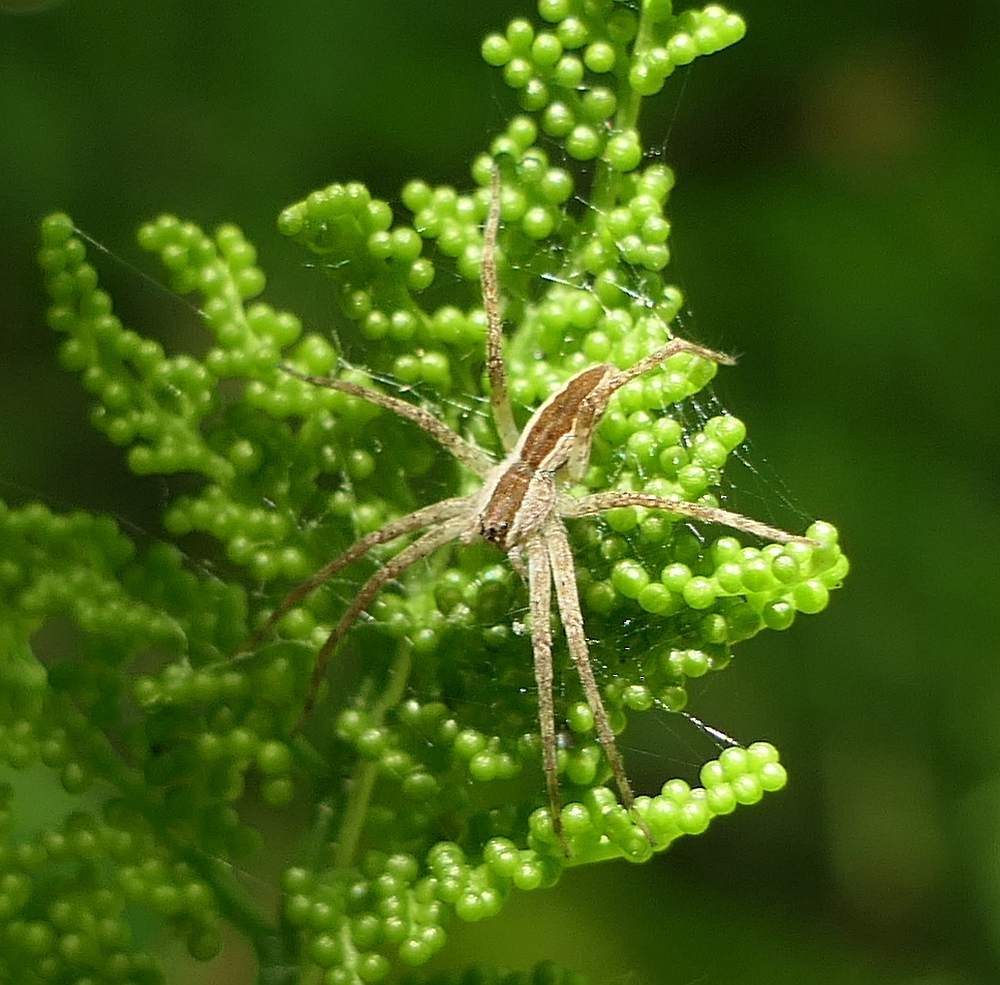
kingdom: Animalia
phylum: Arthropoda
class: Arachnida
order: Araneae
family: Pisauridae
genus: Pisaurina
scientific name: Pisaurina mira
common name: American nursery web spider
